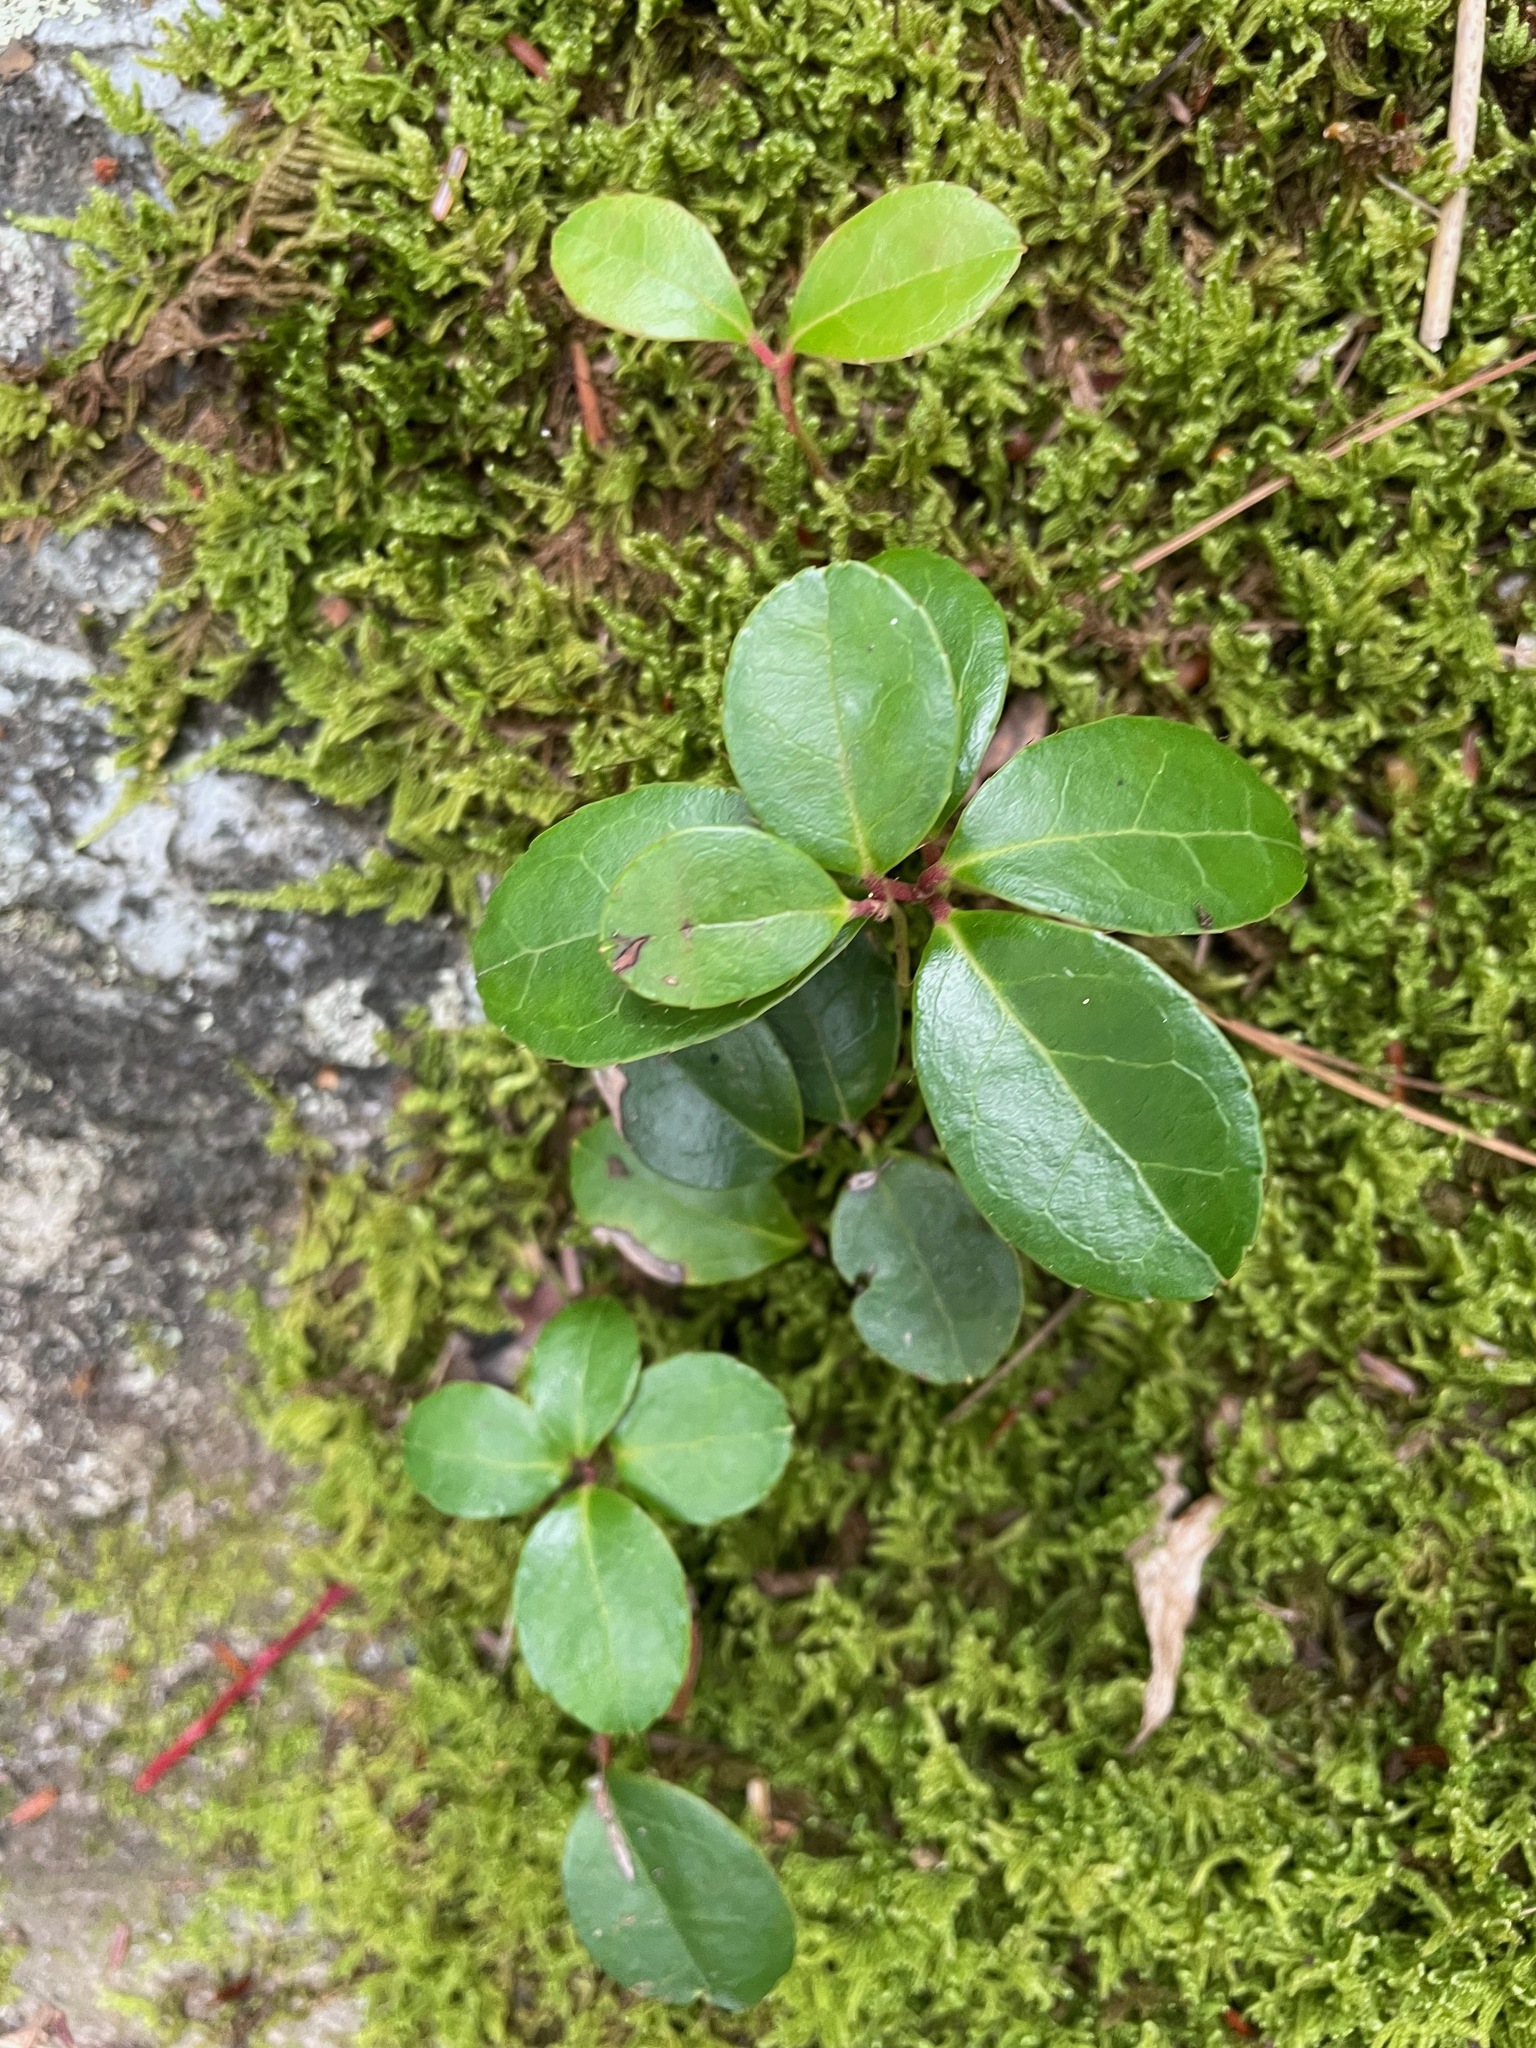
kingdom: Plantae
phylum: Tracheophyta
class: Magnoliopsida
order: Ericales
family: Ericaceae
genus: Gaultheria
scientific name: Gaultheria procumbens
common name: Checkerberry
